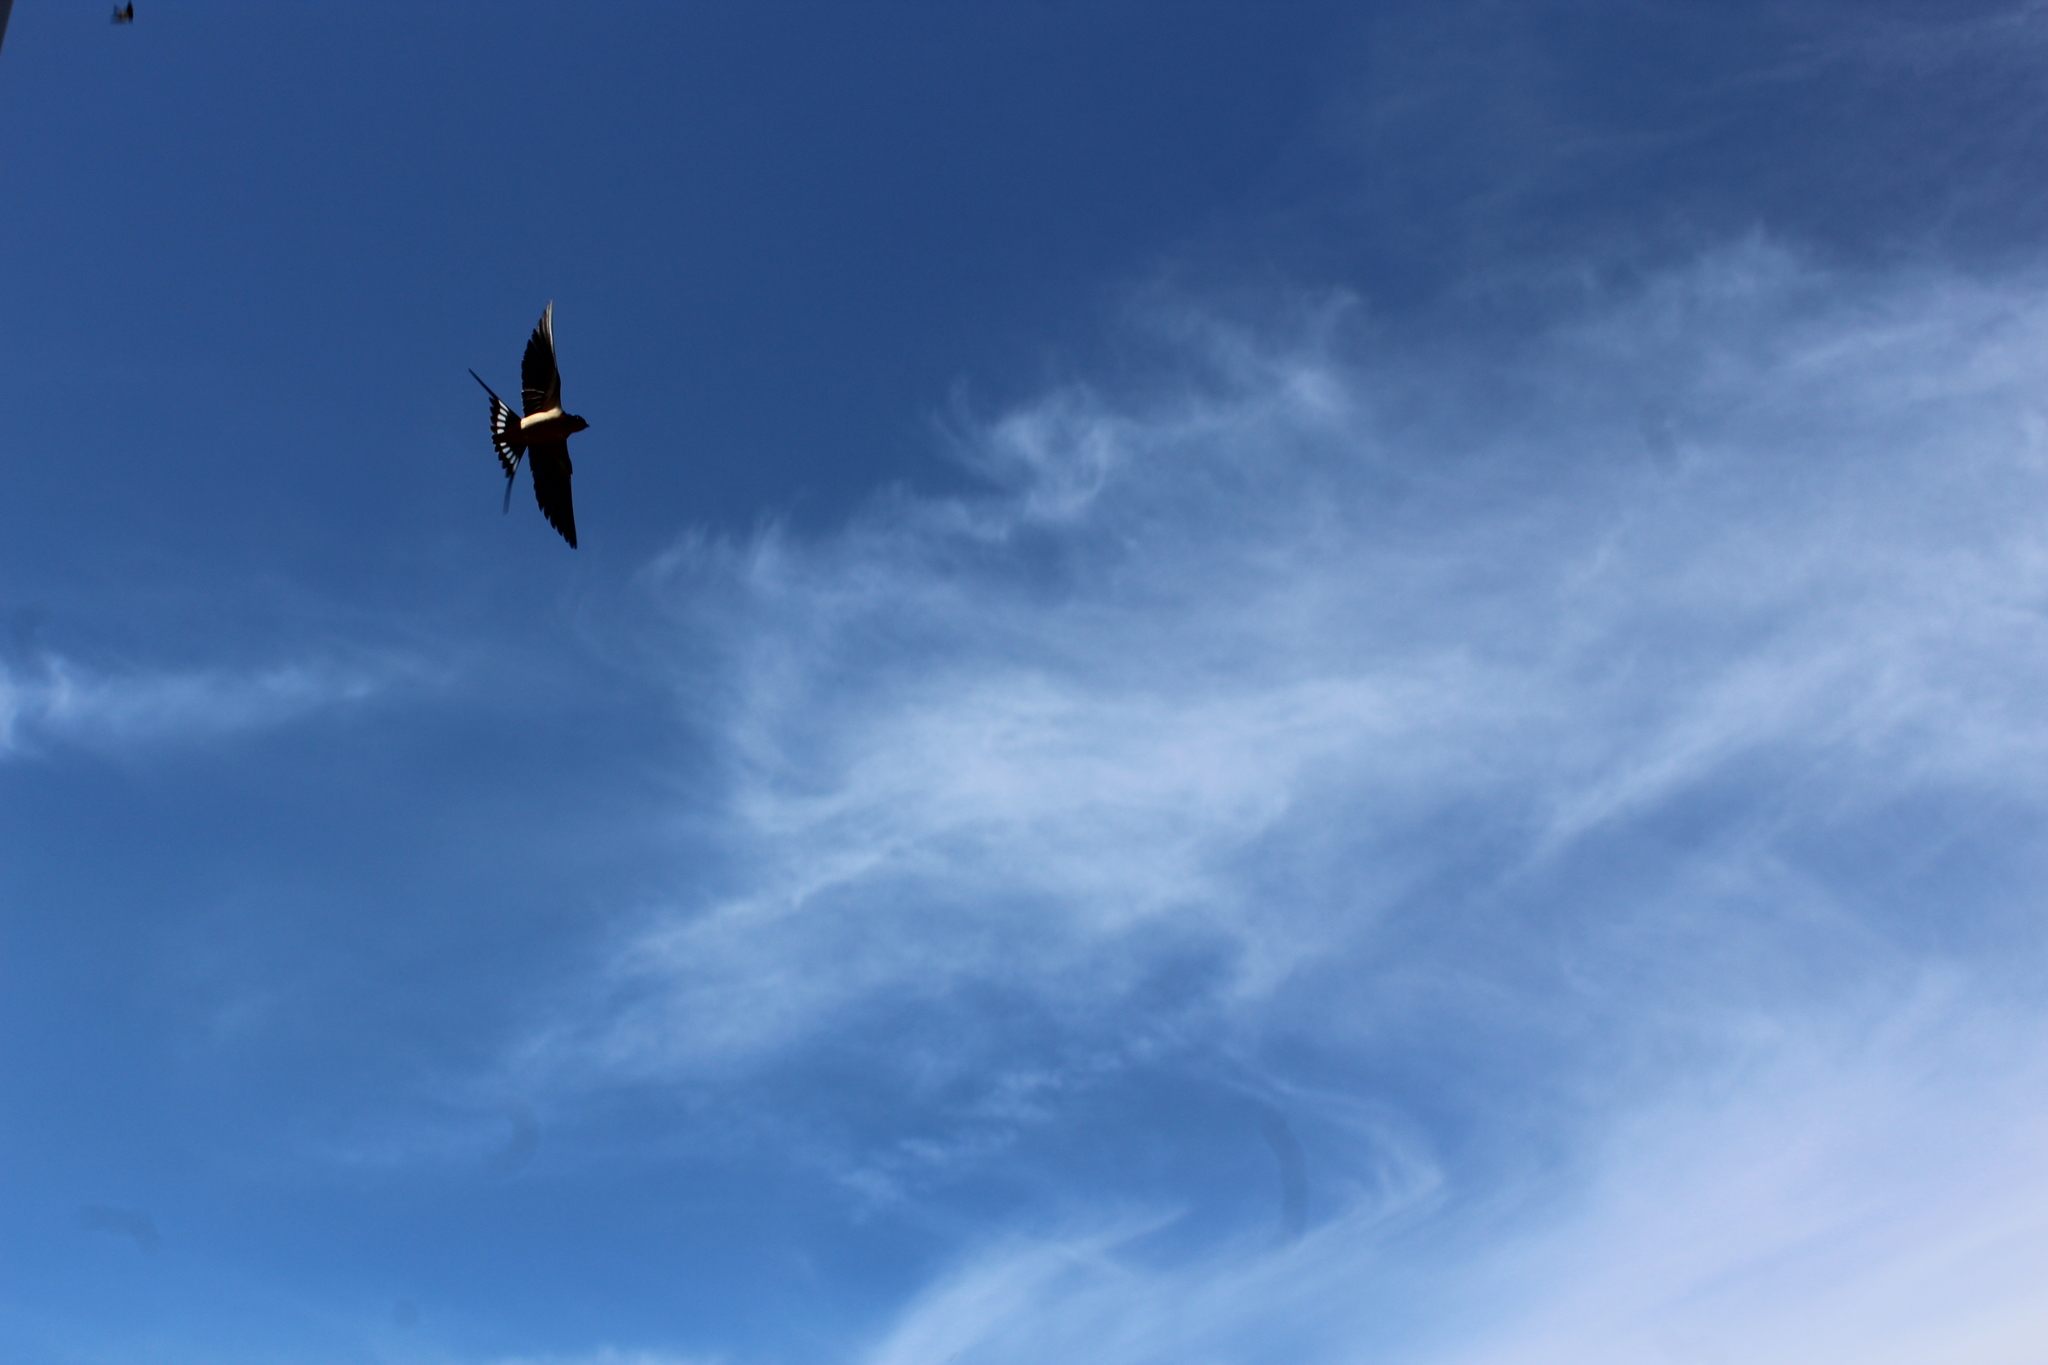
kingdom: Animalia
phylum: Chordata
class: Aves
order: Passeriformes
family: Hirundinidae
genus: Hirundo
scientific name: Hirundo rustica
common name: Barn swallow
